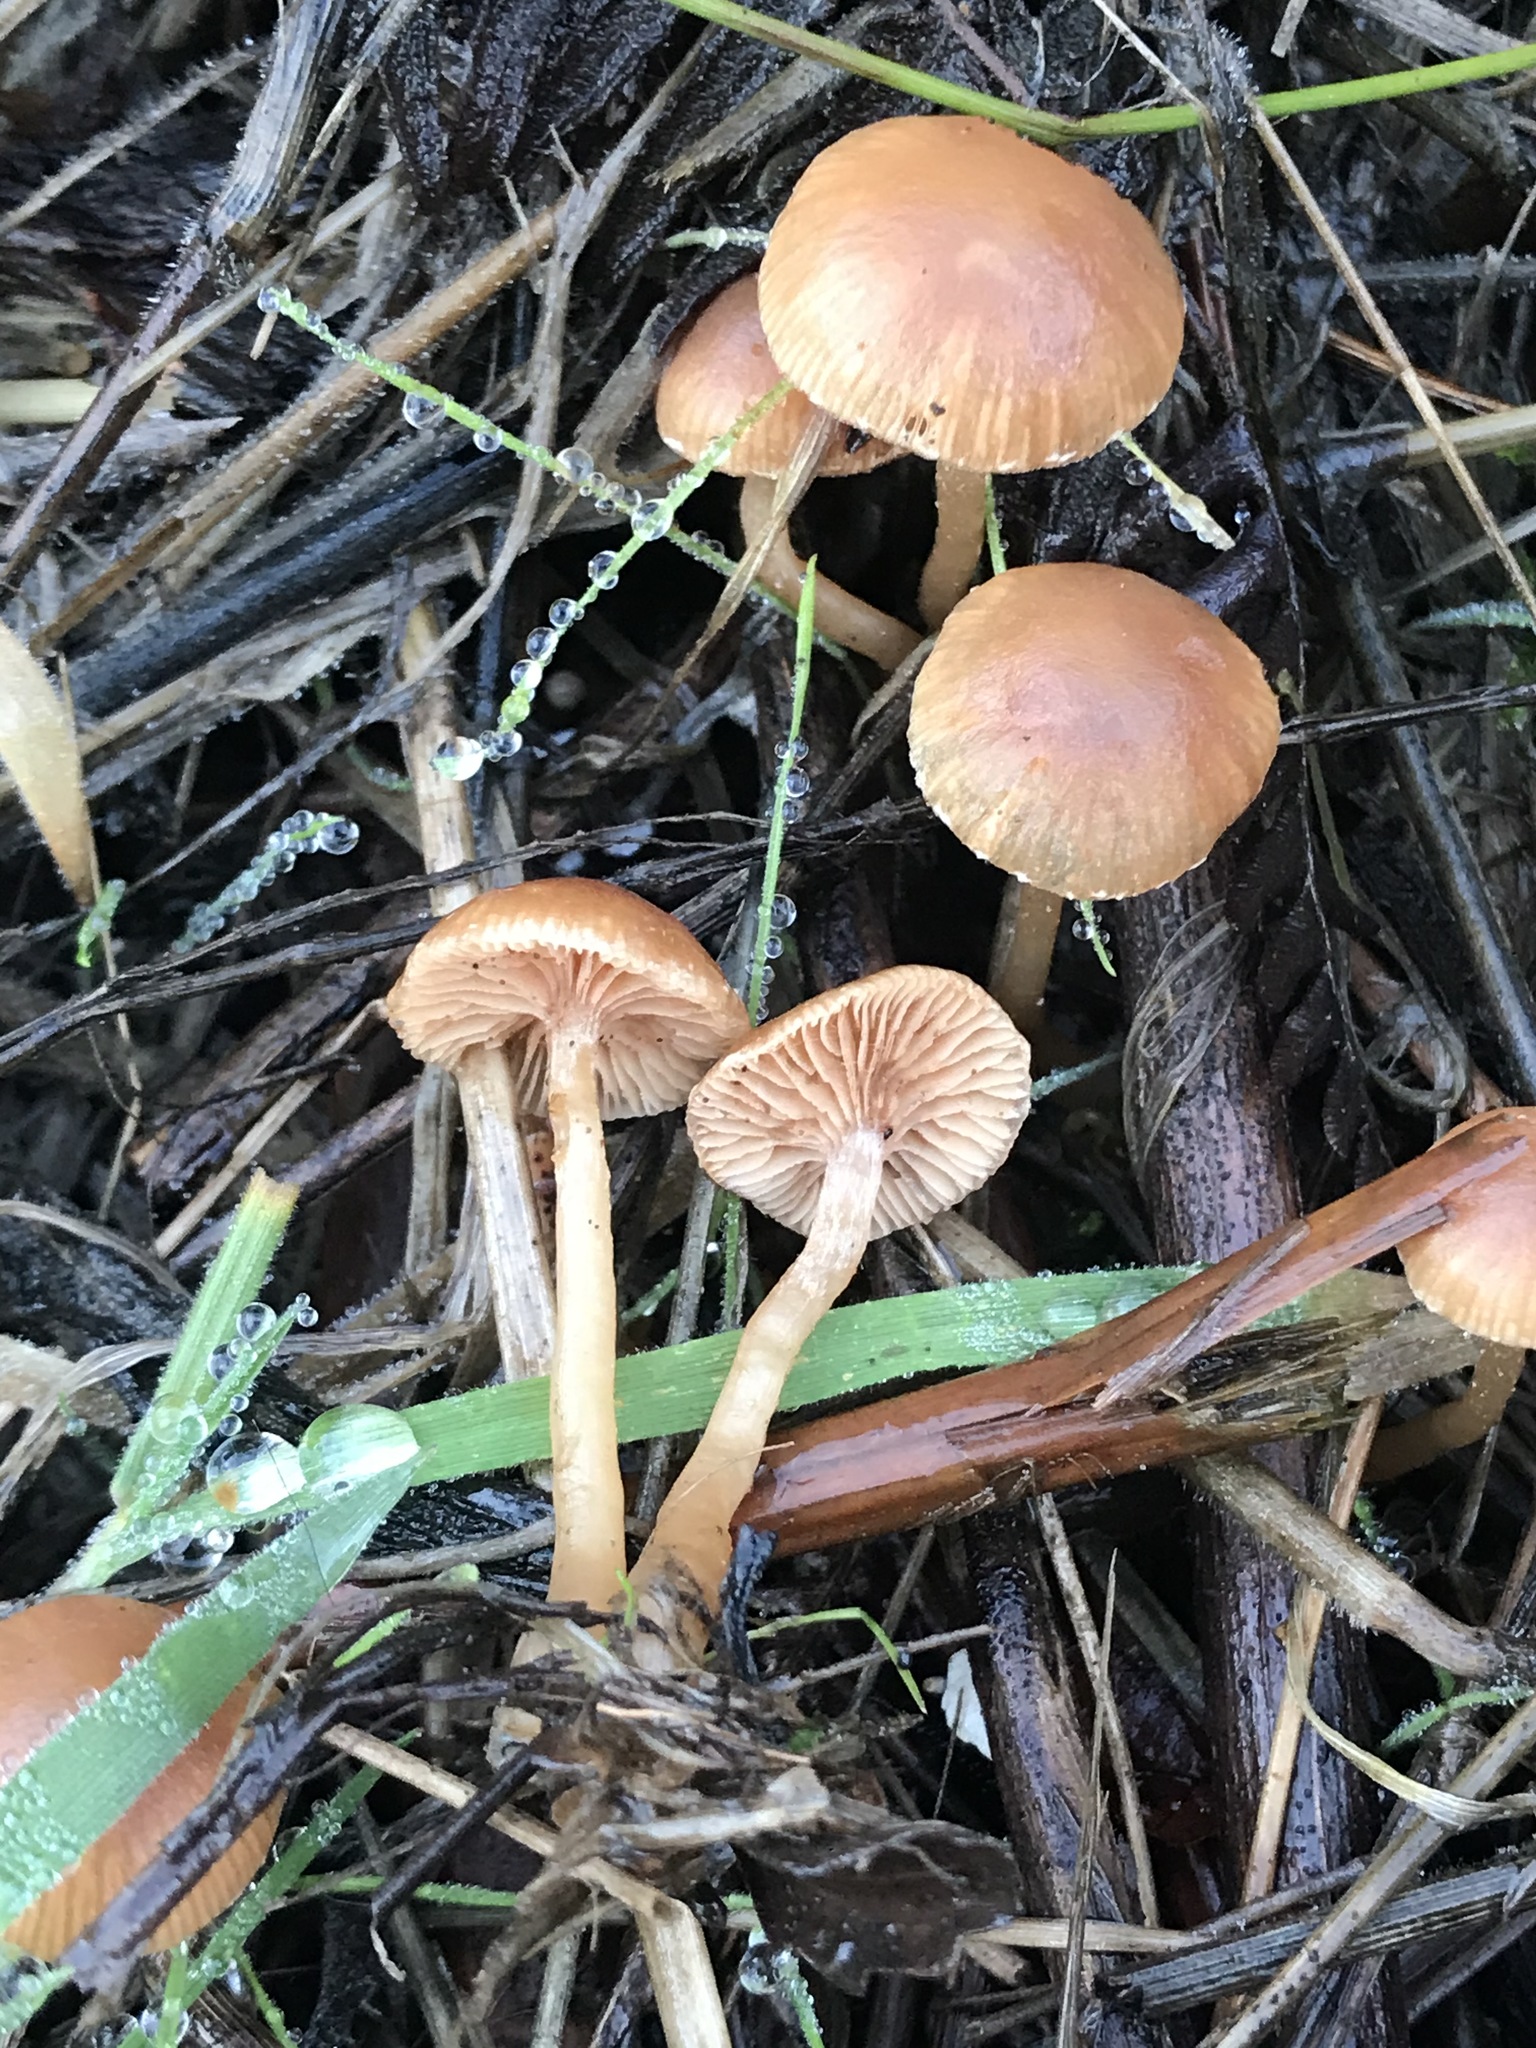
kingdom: Fungi
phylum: Basidiomycota
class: Agaricomycetes
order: Agaricales
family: Tubariaceae
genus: Tubaria
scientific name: Tubaria furfuracea
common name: Scurfy twiglet
